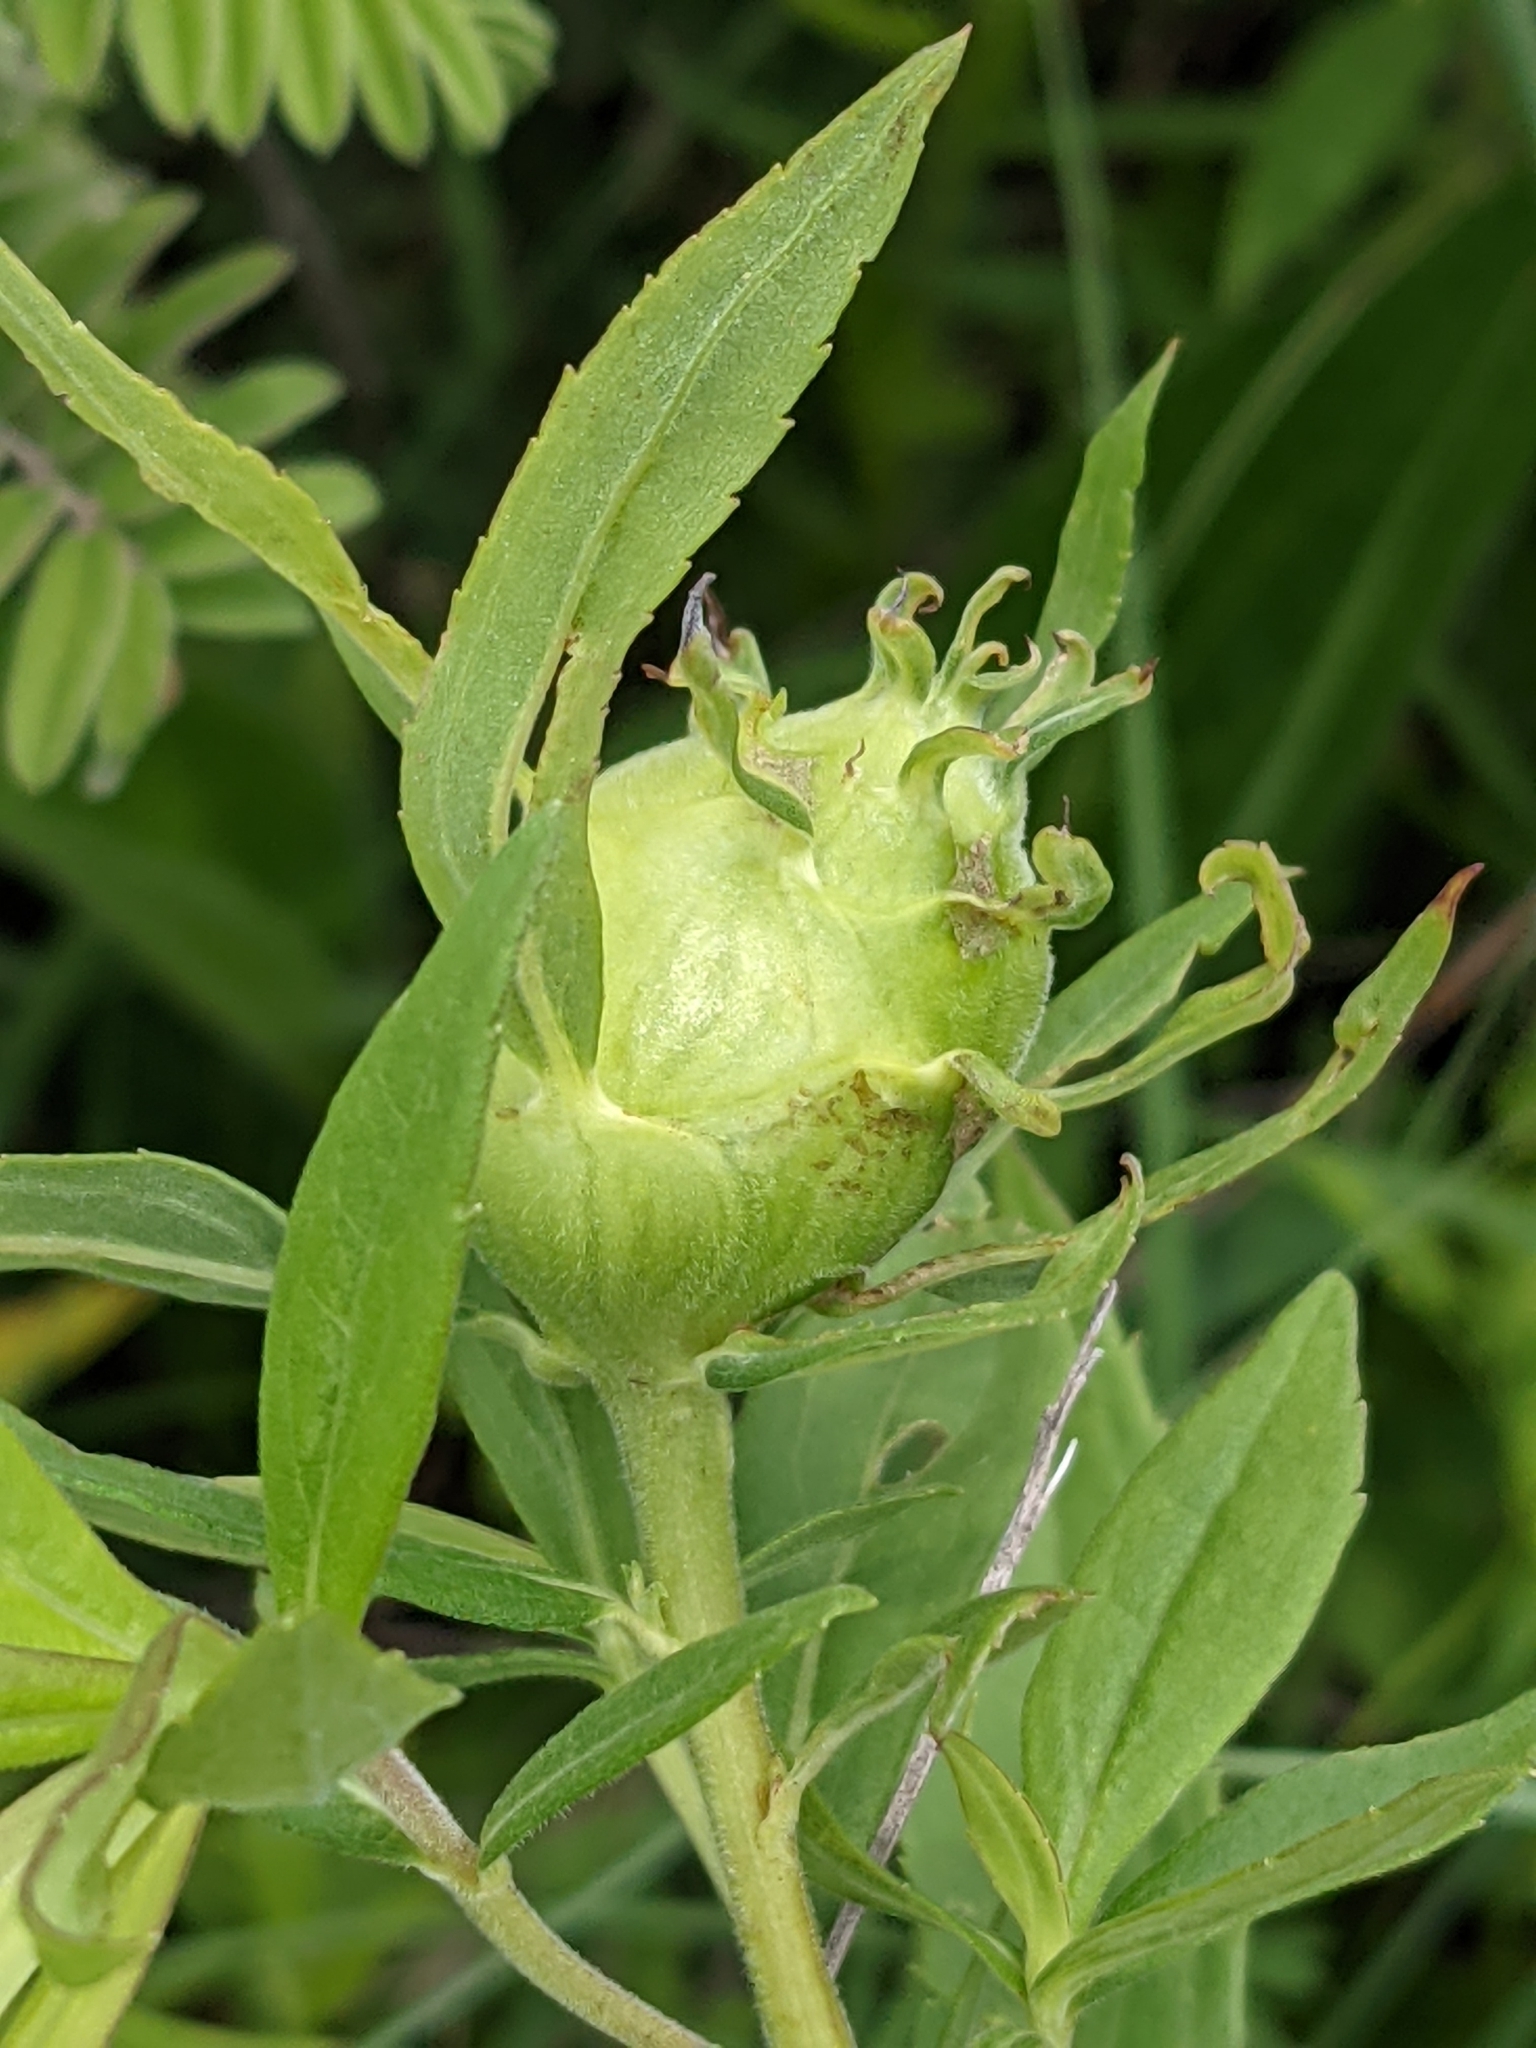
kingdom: Animalia
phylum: Arthropoda
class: Insecta
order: Diptera
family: Tephritidae
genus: Eurosta
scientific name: Eurosta solidaginis
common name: Goldenrod gall fly
